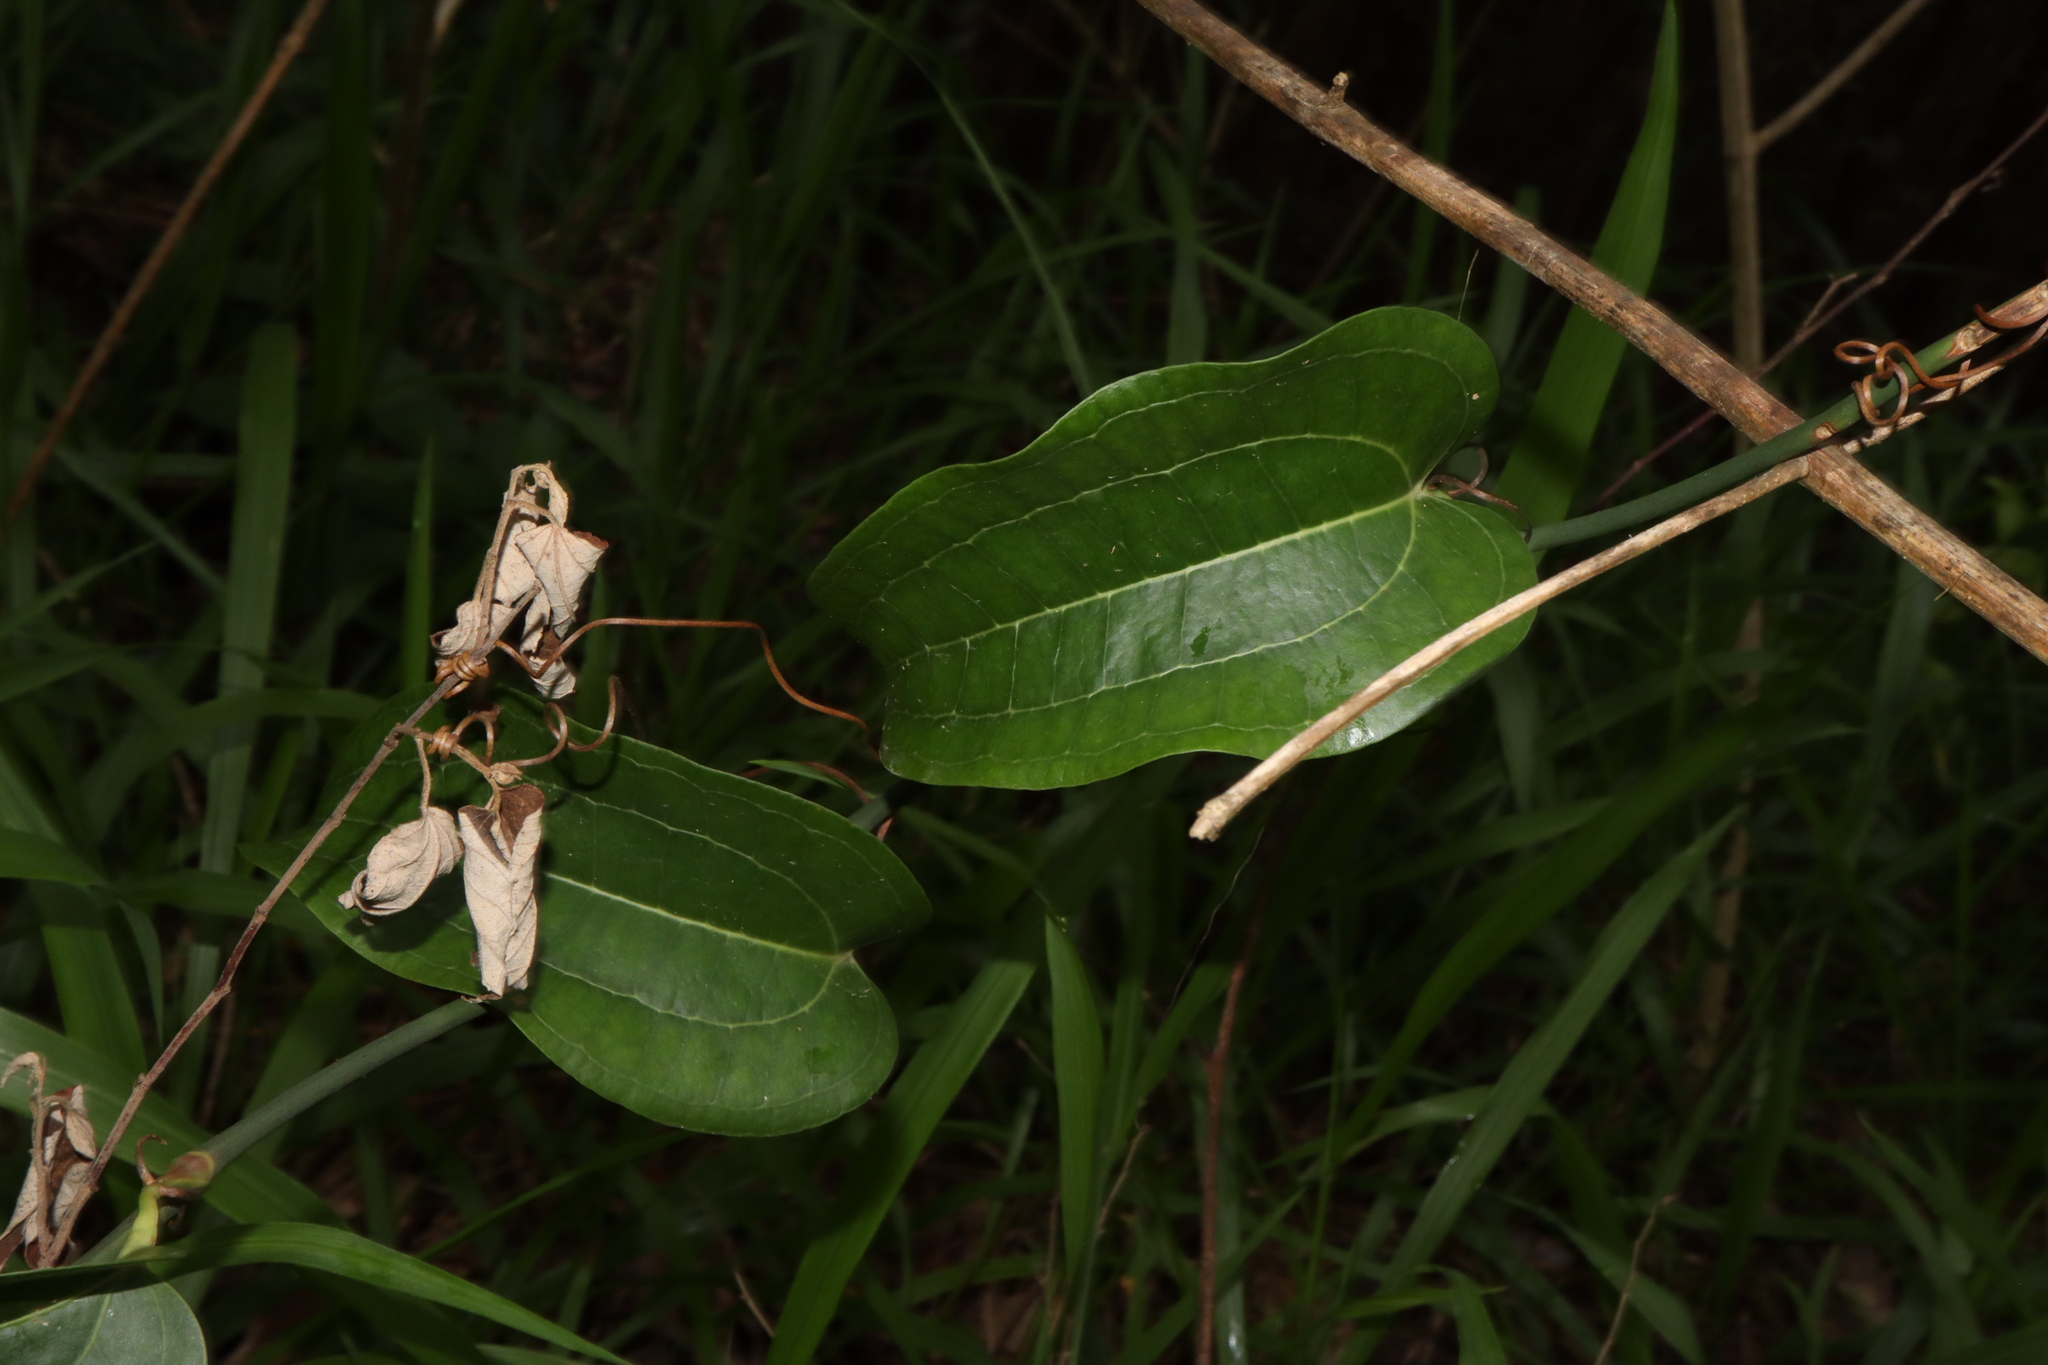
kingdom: Plantae
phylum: Tracheophyta
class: Liliopsida
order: Liliales
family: Smilacaceae
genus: Smilax
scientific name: Smilax australis
